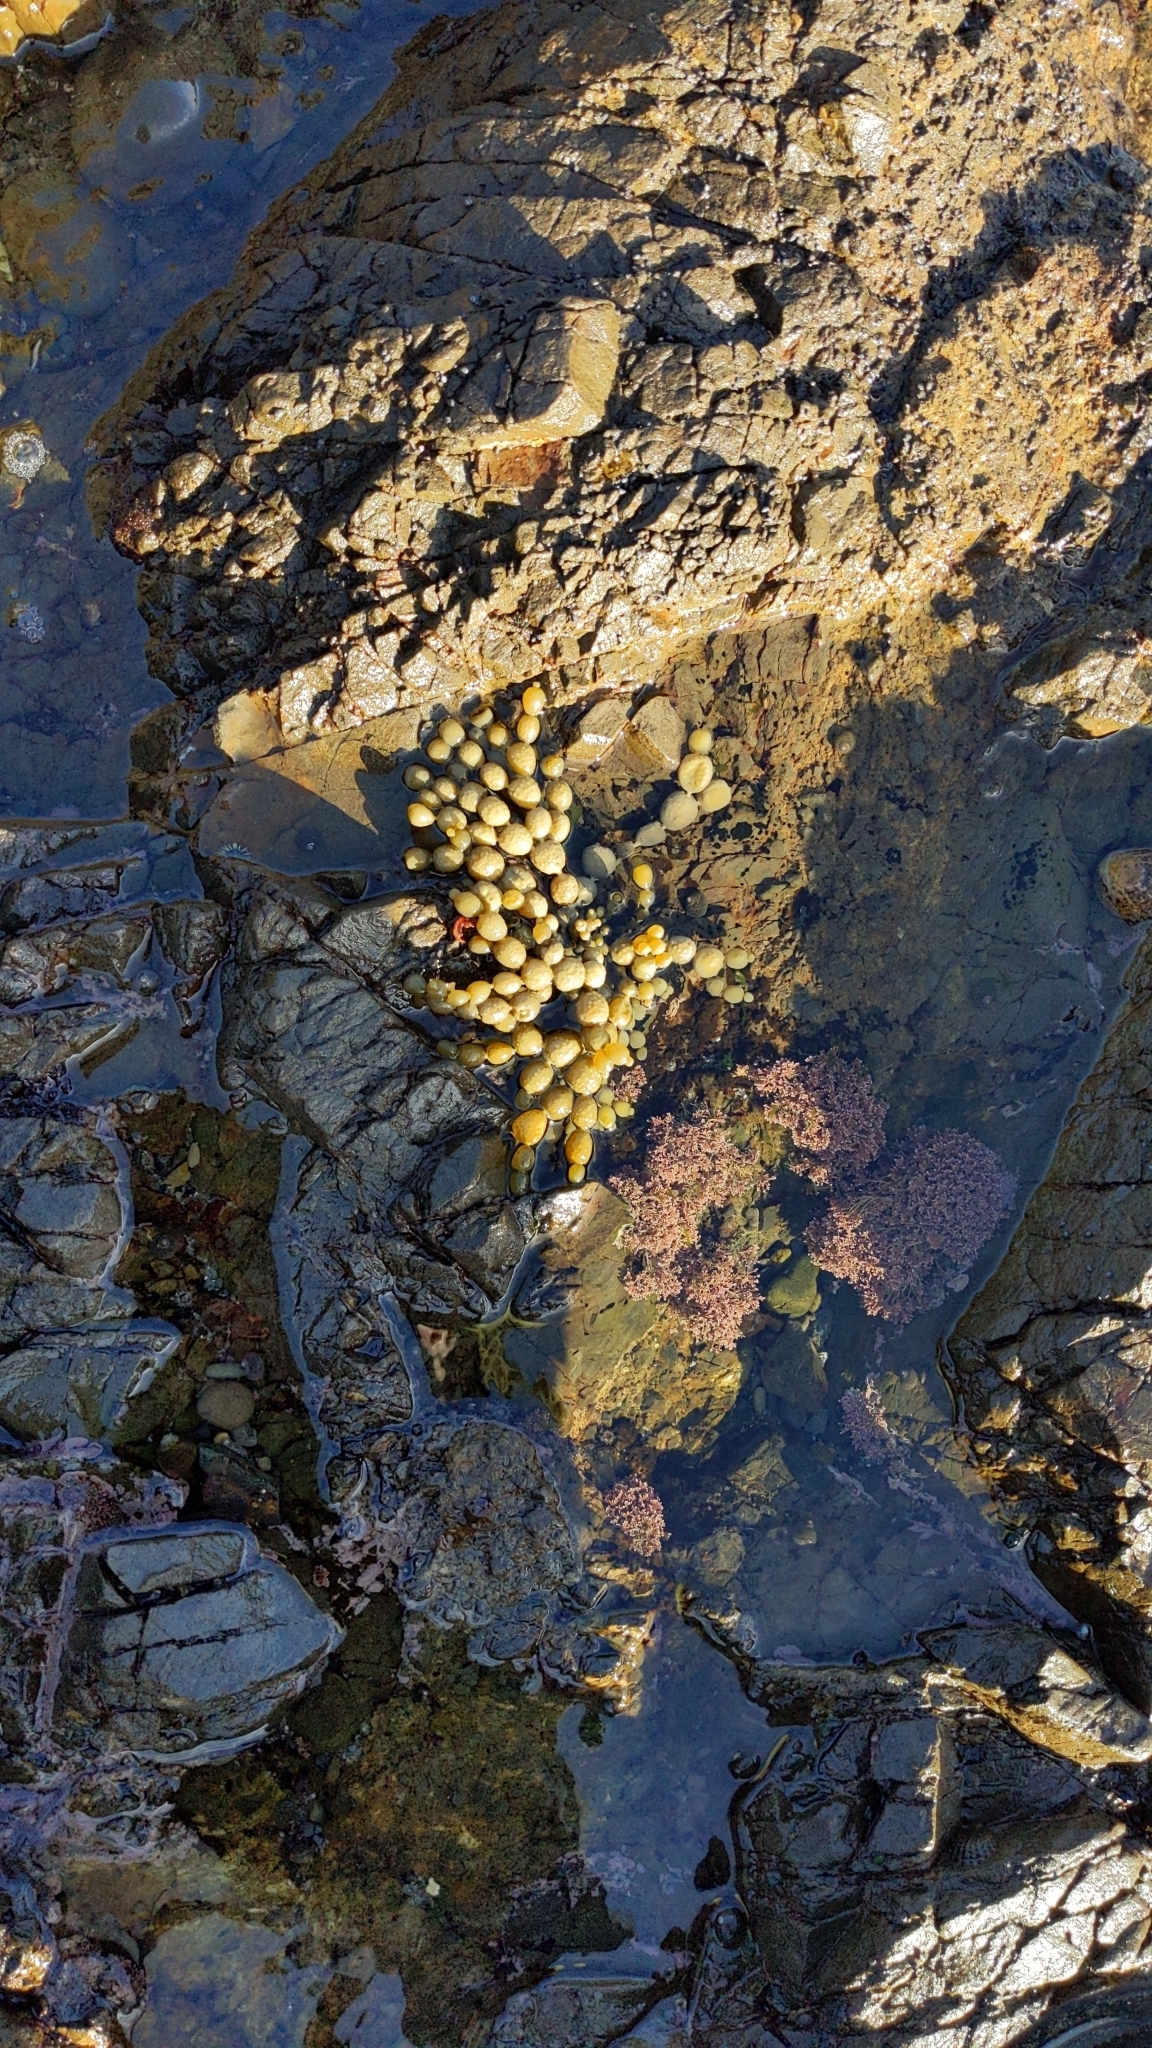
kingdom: Chromista
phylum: Ochrophyta
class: Phaeophyceae
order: Fucales
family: Hormosiraceae
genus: Hormosira
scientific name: Hormosira banksii
